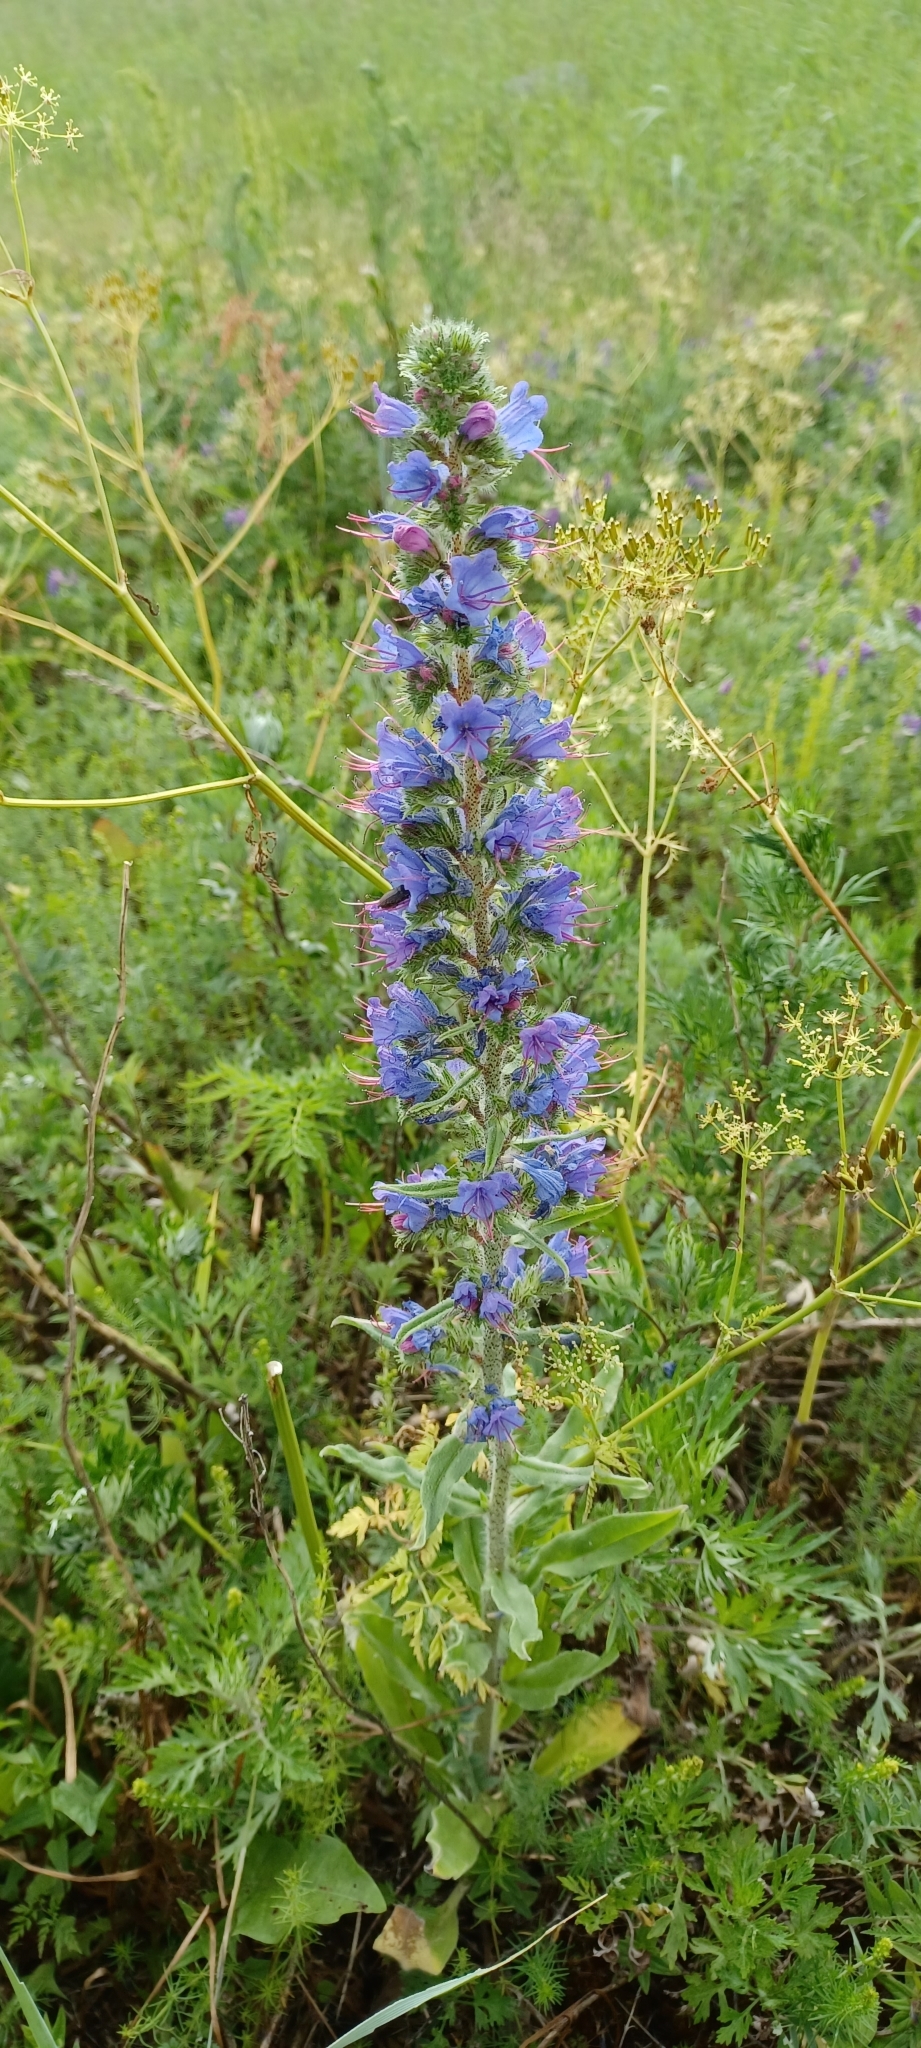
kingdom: Plantae
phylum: Tracheophyta
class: Magnoliopsida
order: Boraginales
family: Boraginaceae
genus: Echium
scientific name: Echium vulgare
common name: Common viper's bugloss
